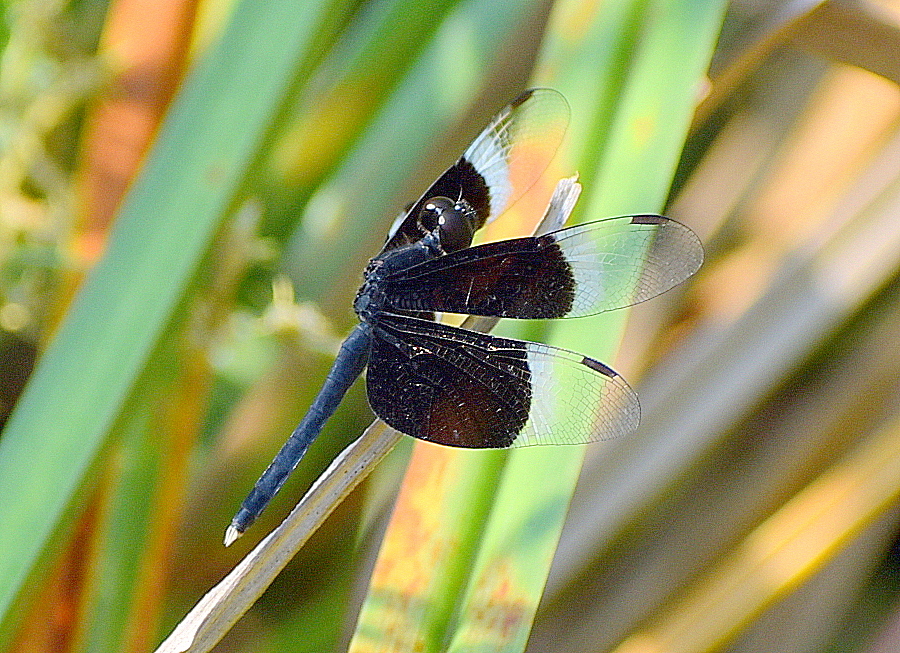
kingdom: Animalia
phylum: Arthropoda
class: Insecta
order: Odonata
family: Libellulidae
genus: Neurothemis
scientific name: Neurothemis tullia
